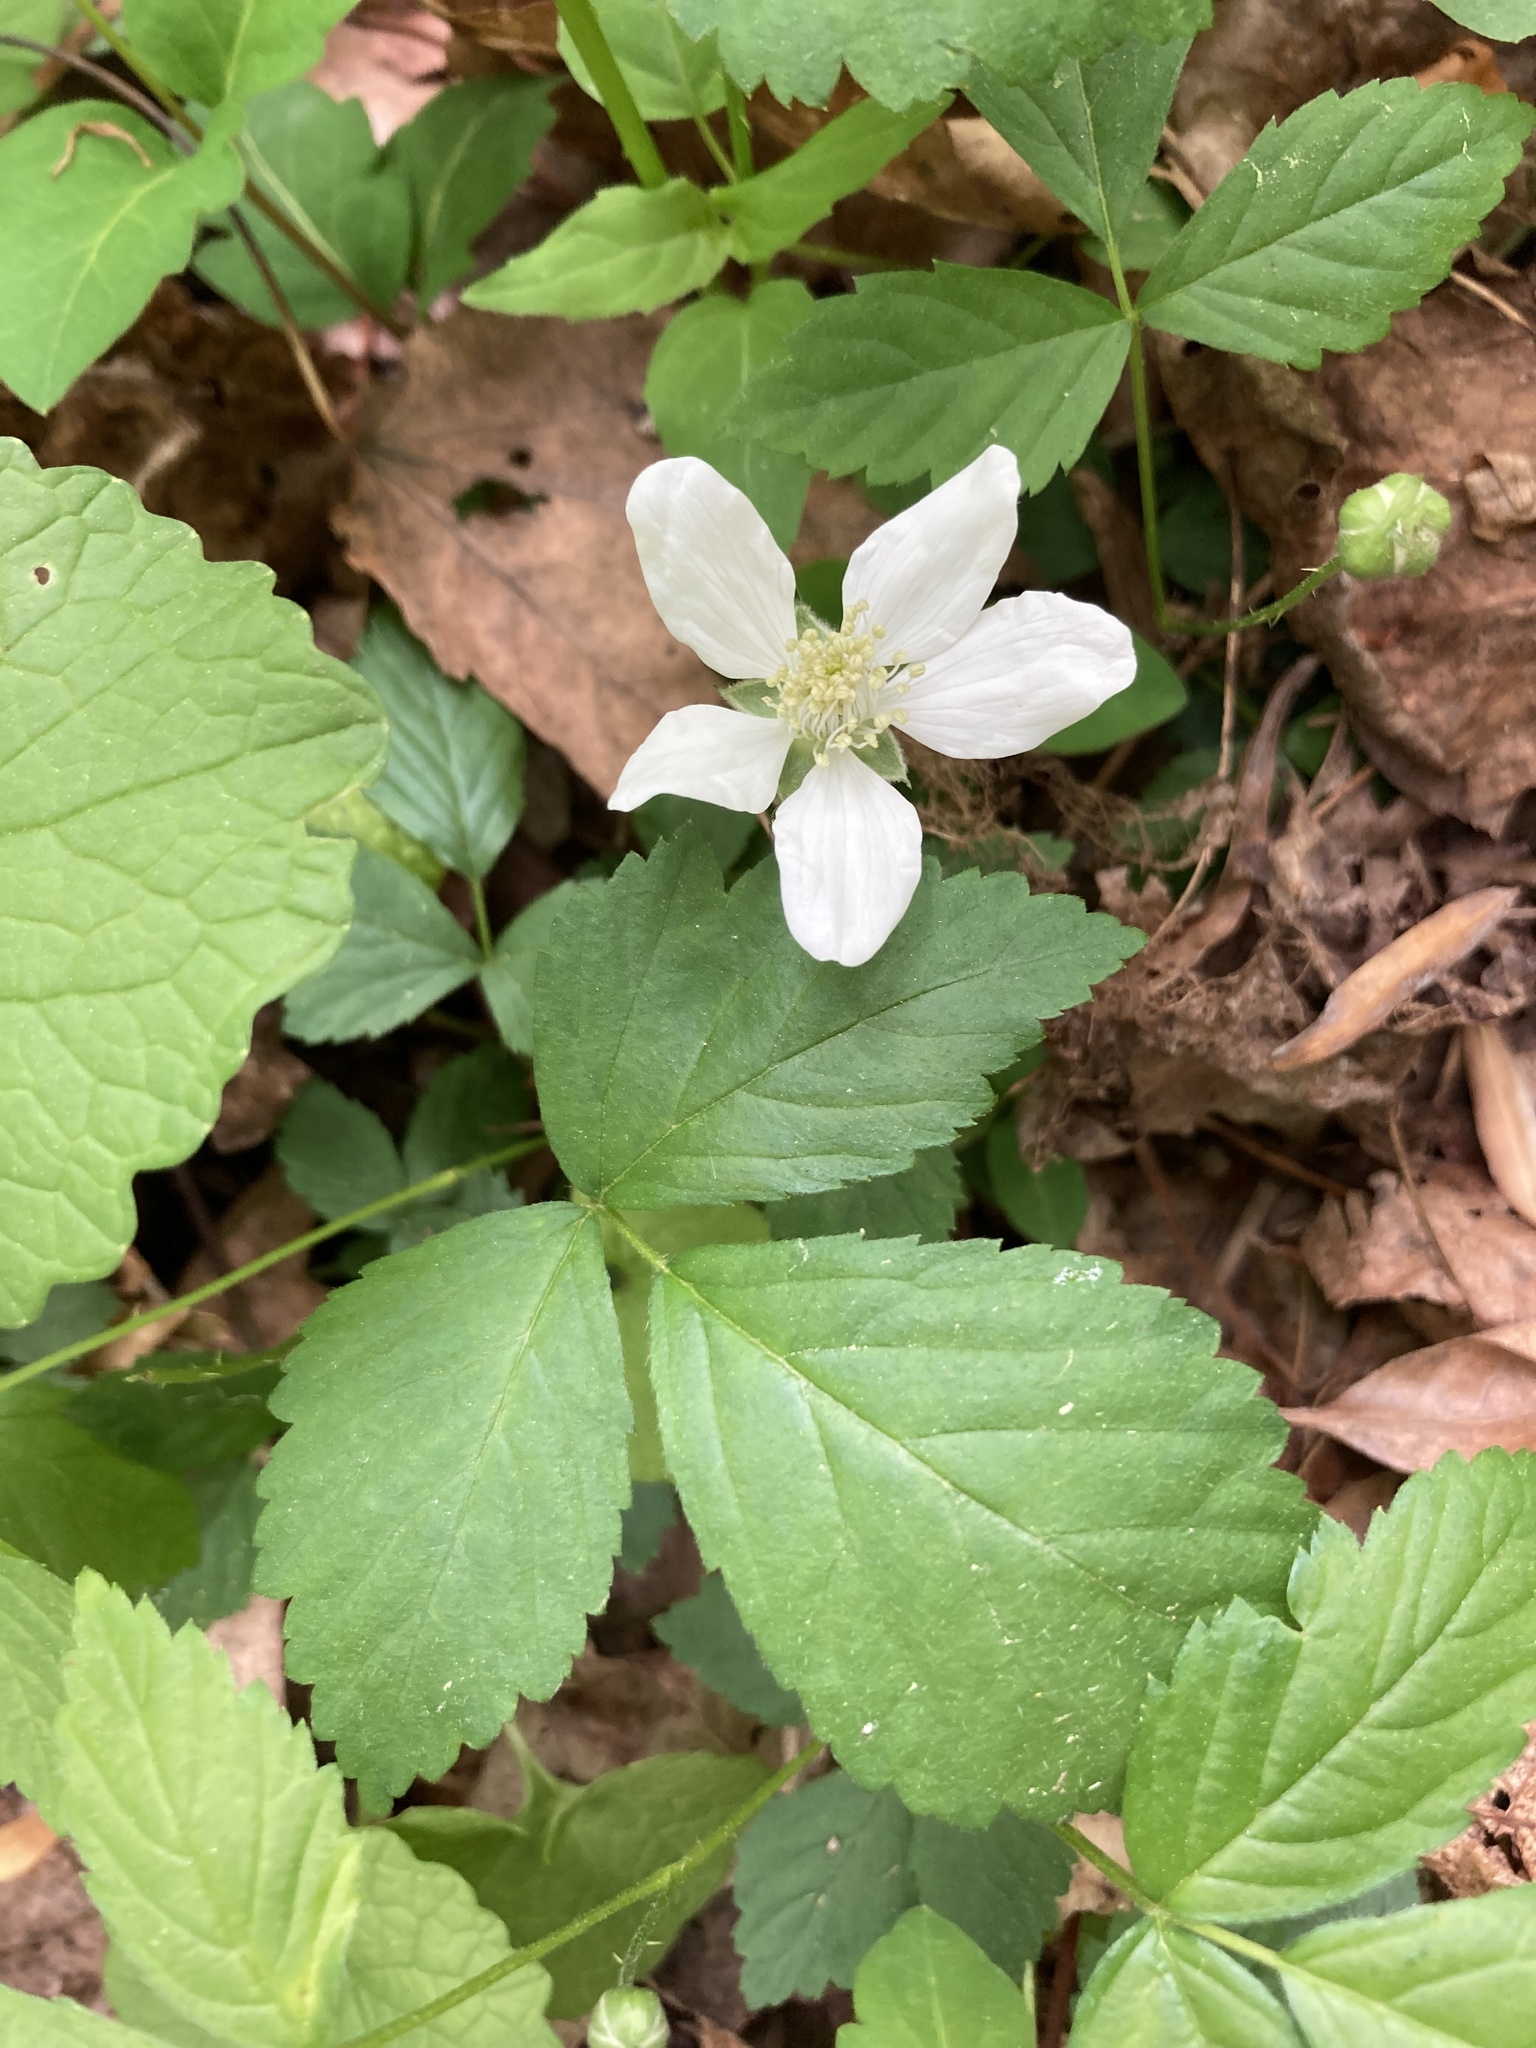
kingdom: Plantae
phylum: Tracheophyta
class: Magnoliopsida
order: Rosales
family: Rosaceae
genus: Rubus
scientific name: Rubus flagellaris
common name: American dewberry
